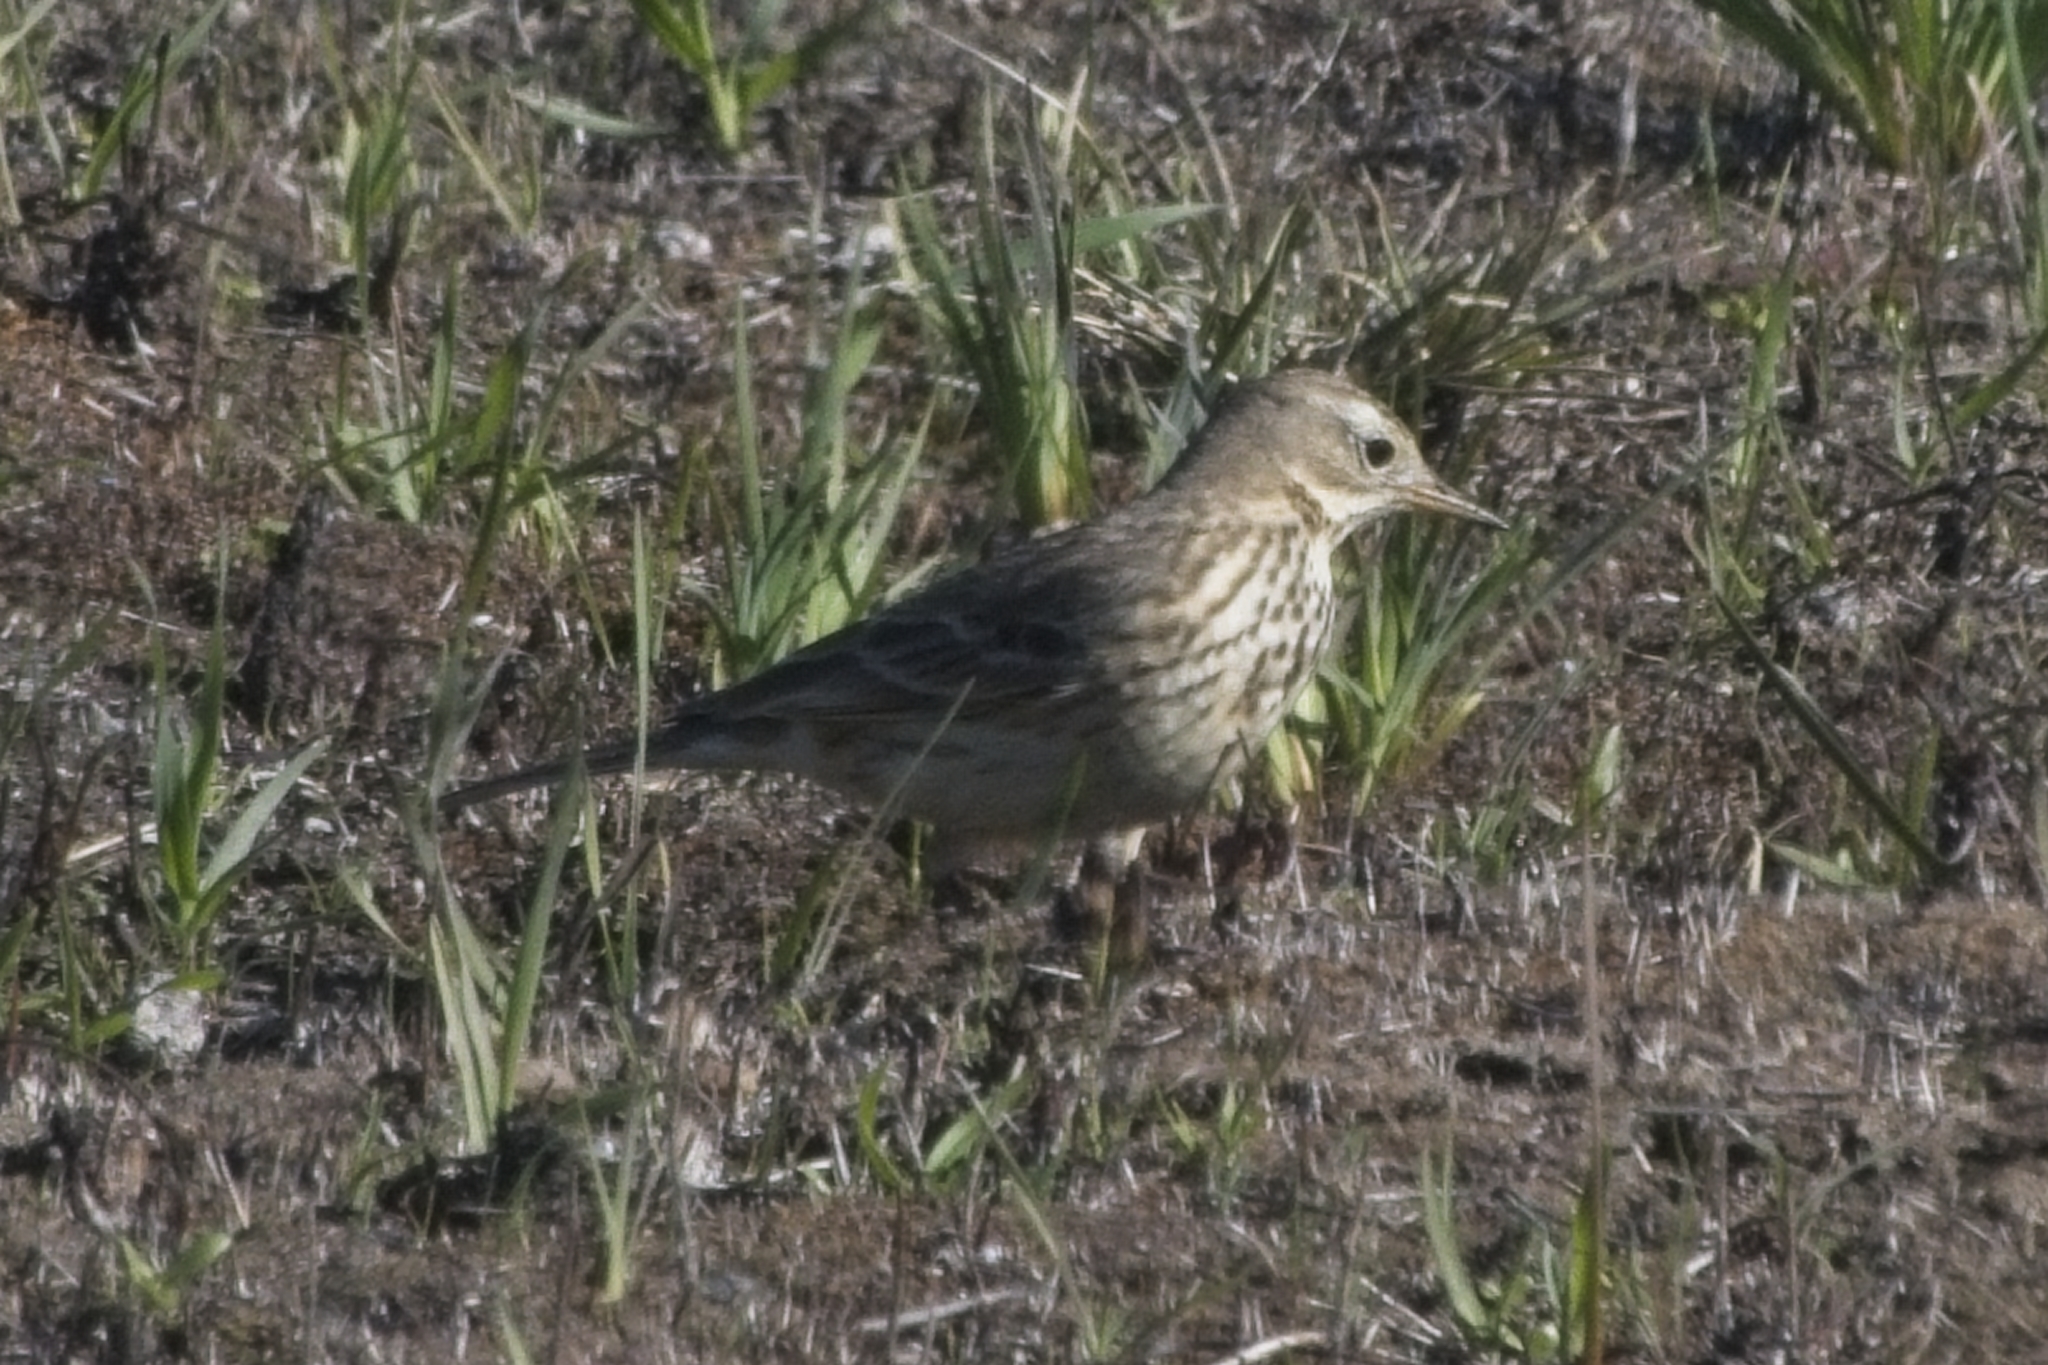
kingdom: Animalia
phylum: Chordata
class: Aves
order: Passeriformes
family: Motacillidae
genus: Anthus
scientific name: Anthus rubescens
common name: Buff-bellied pipit
